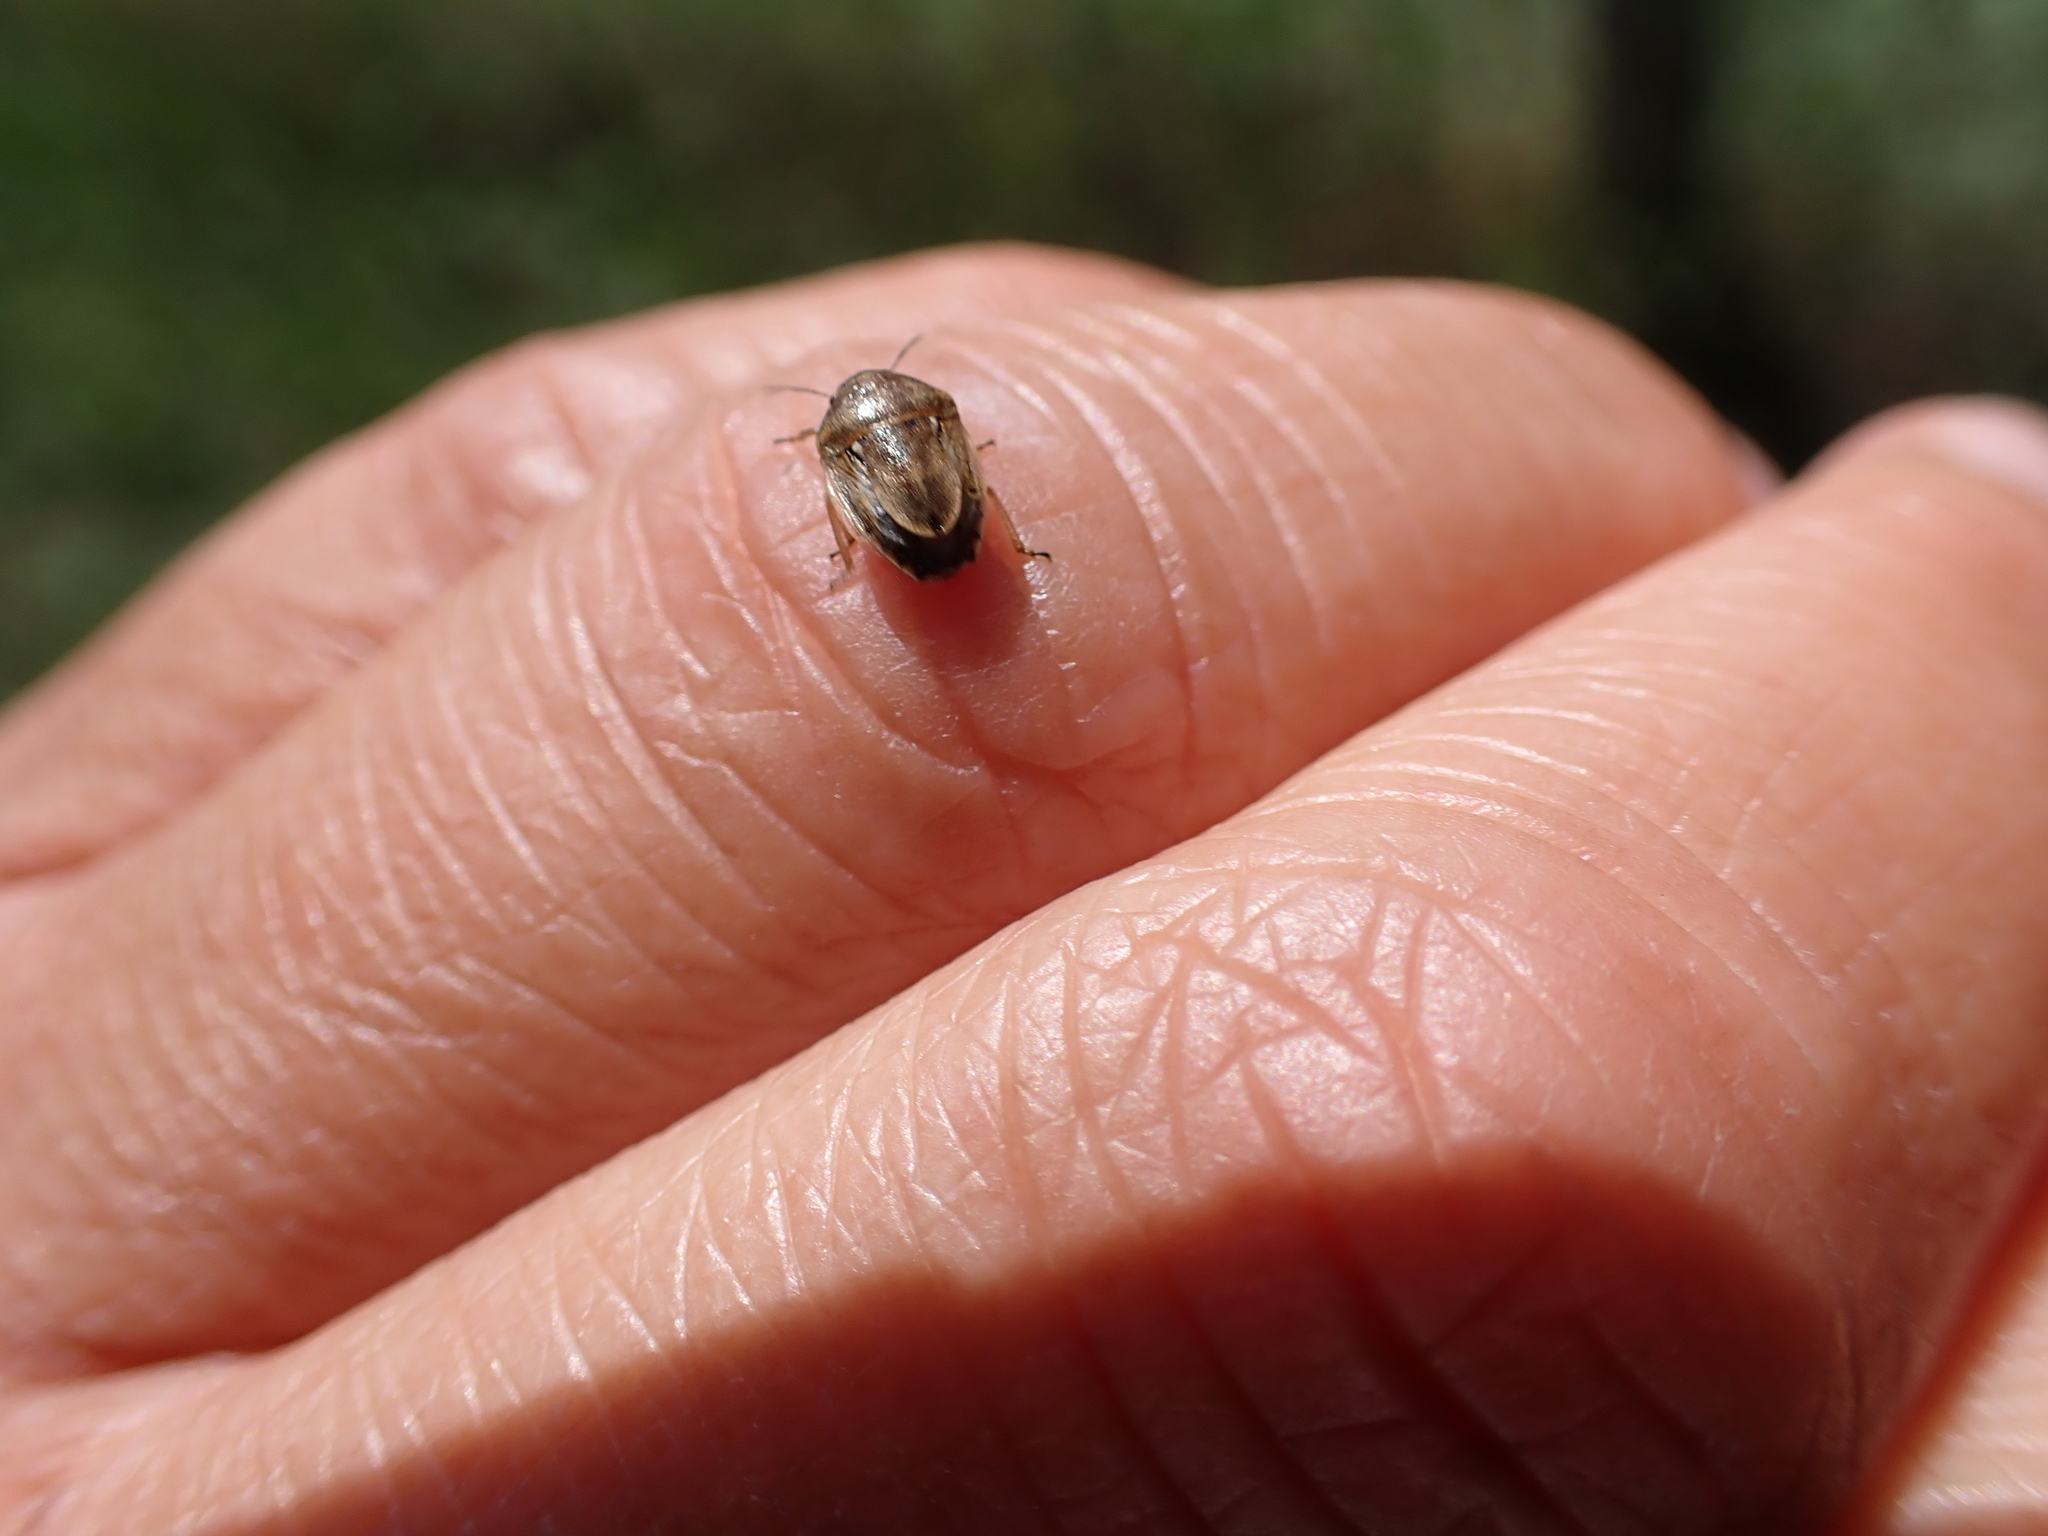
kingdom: Animalia
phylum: Arthropoda
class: Insecta
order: Hemiptera
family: Pentatomidae
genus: Neottiglossa
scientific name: Neottiglossa leporina
